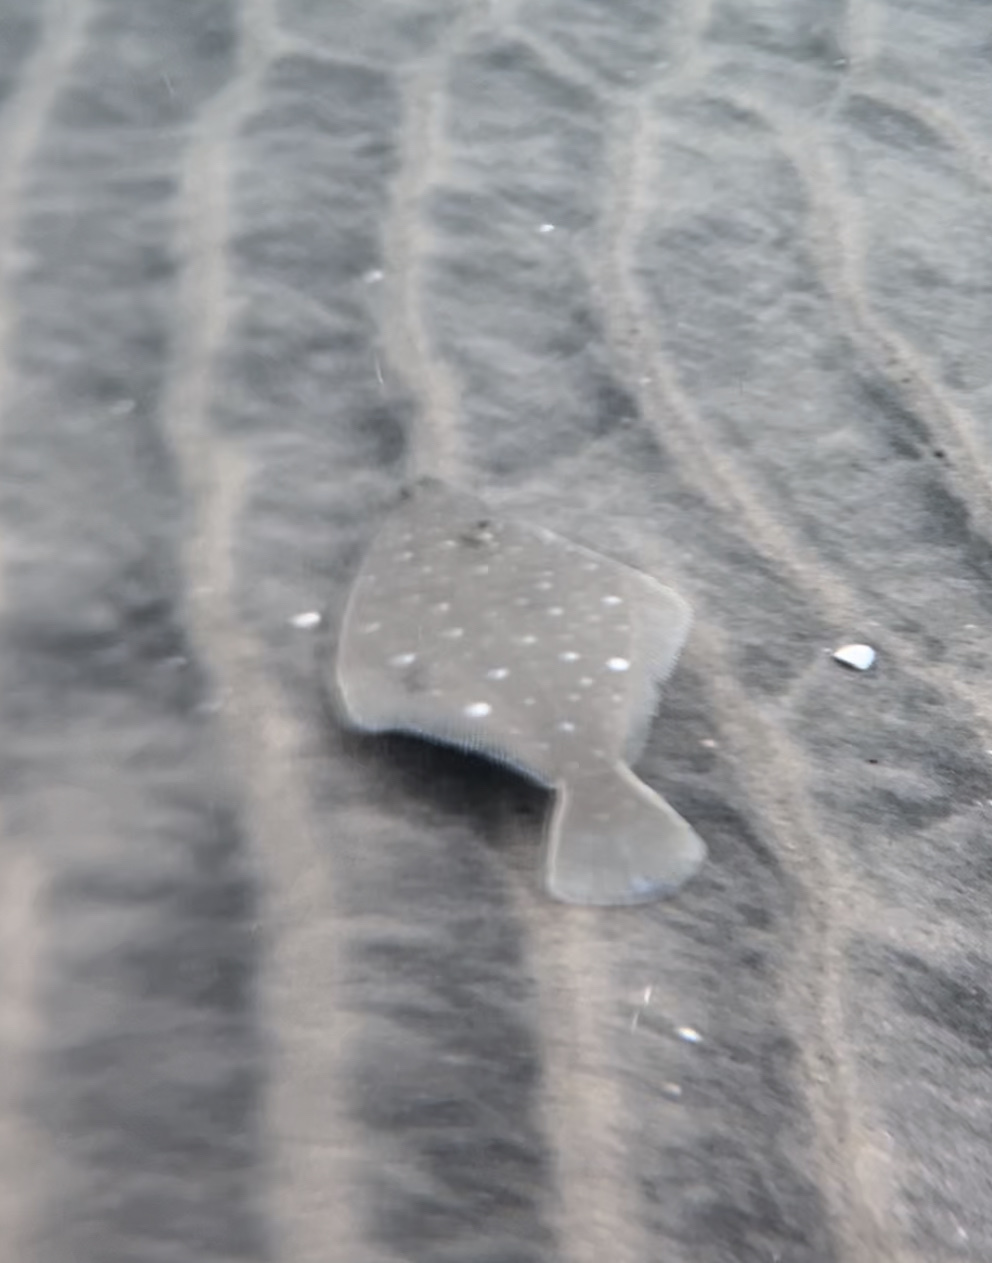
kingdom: Animalia
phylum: Chordata
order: Pleuronectiformes
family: Pleuronectidae
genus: Hypsopsetta
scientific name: Hypsopsetta guttulata
